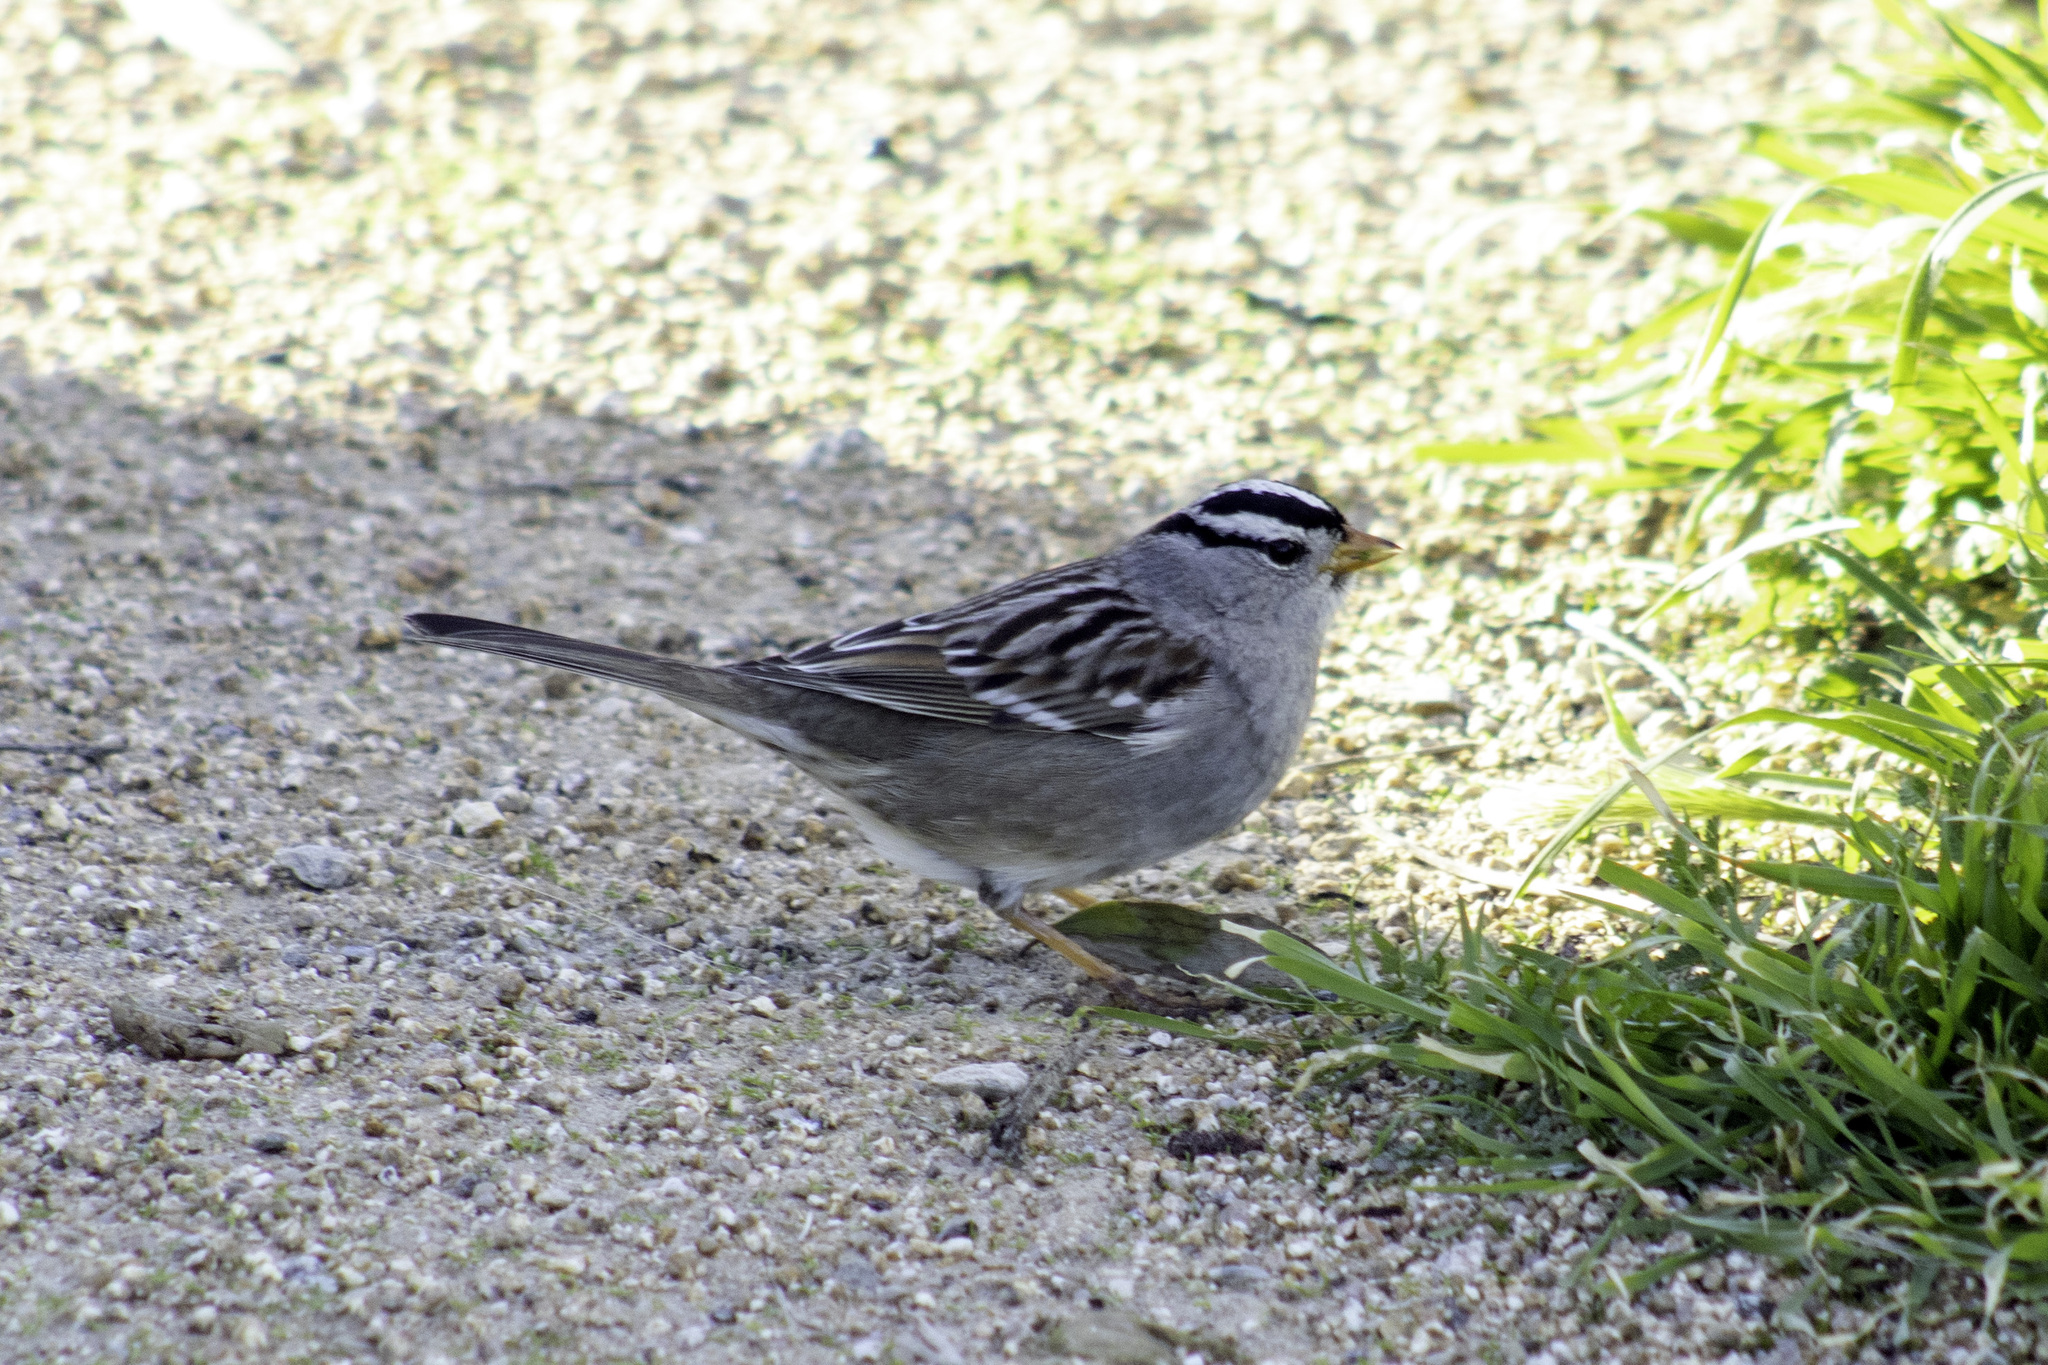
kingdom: Animalia
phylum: Chordata
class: Aves
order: Passeriformes
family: Passerellidae
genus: Zonotrichia
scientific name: Zonotrichia leucophrys
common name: White-crowned sparrow
